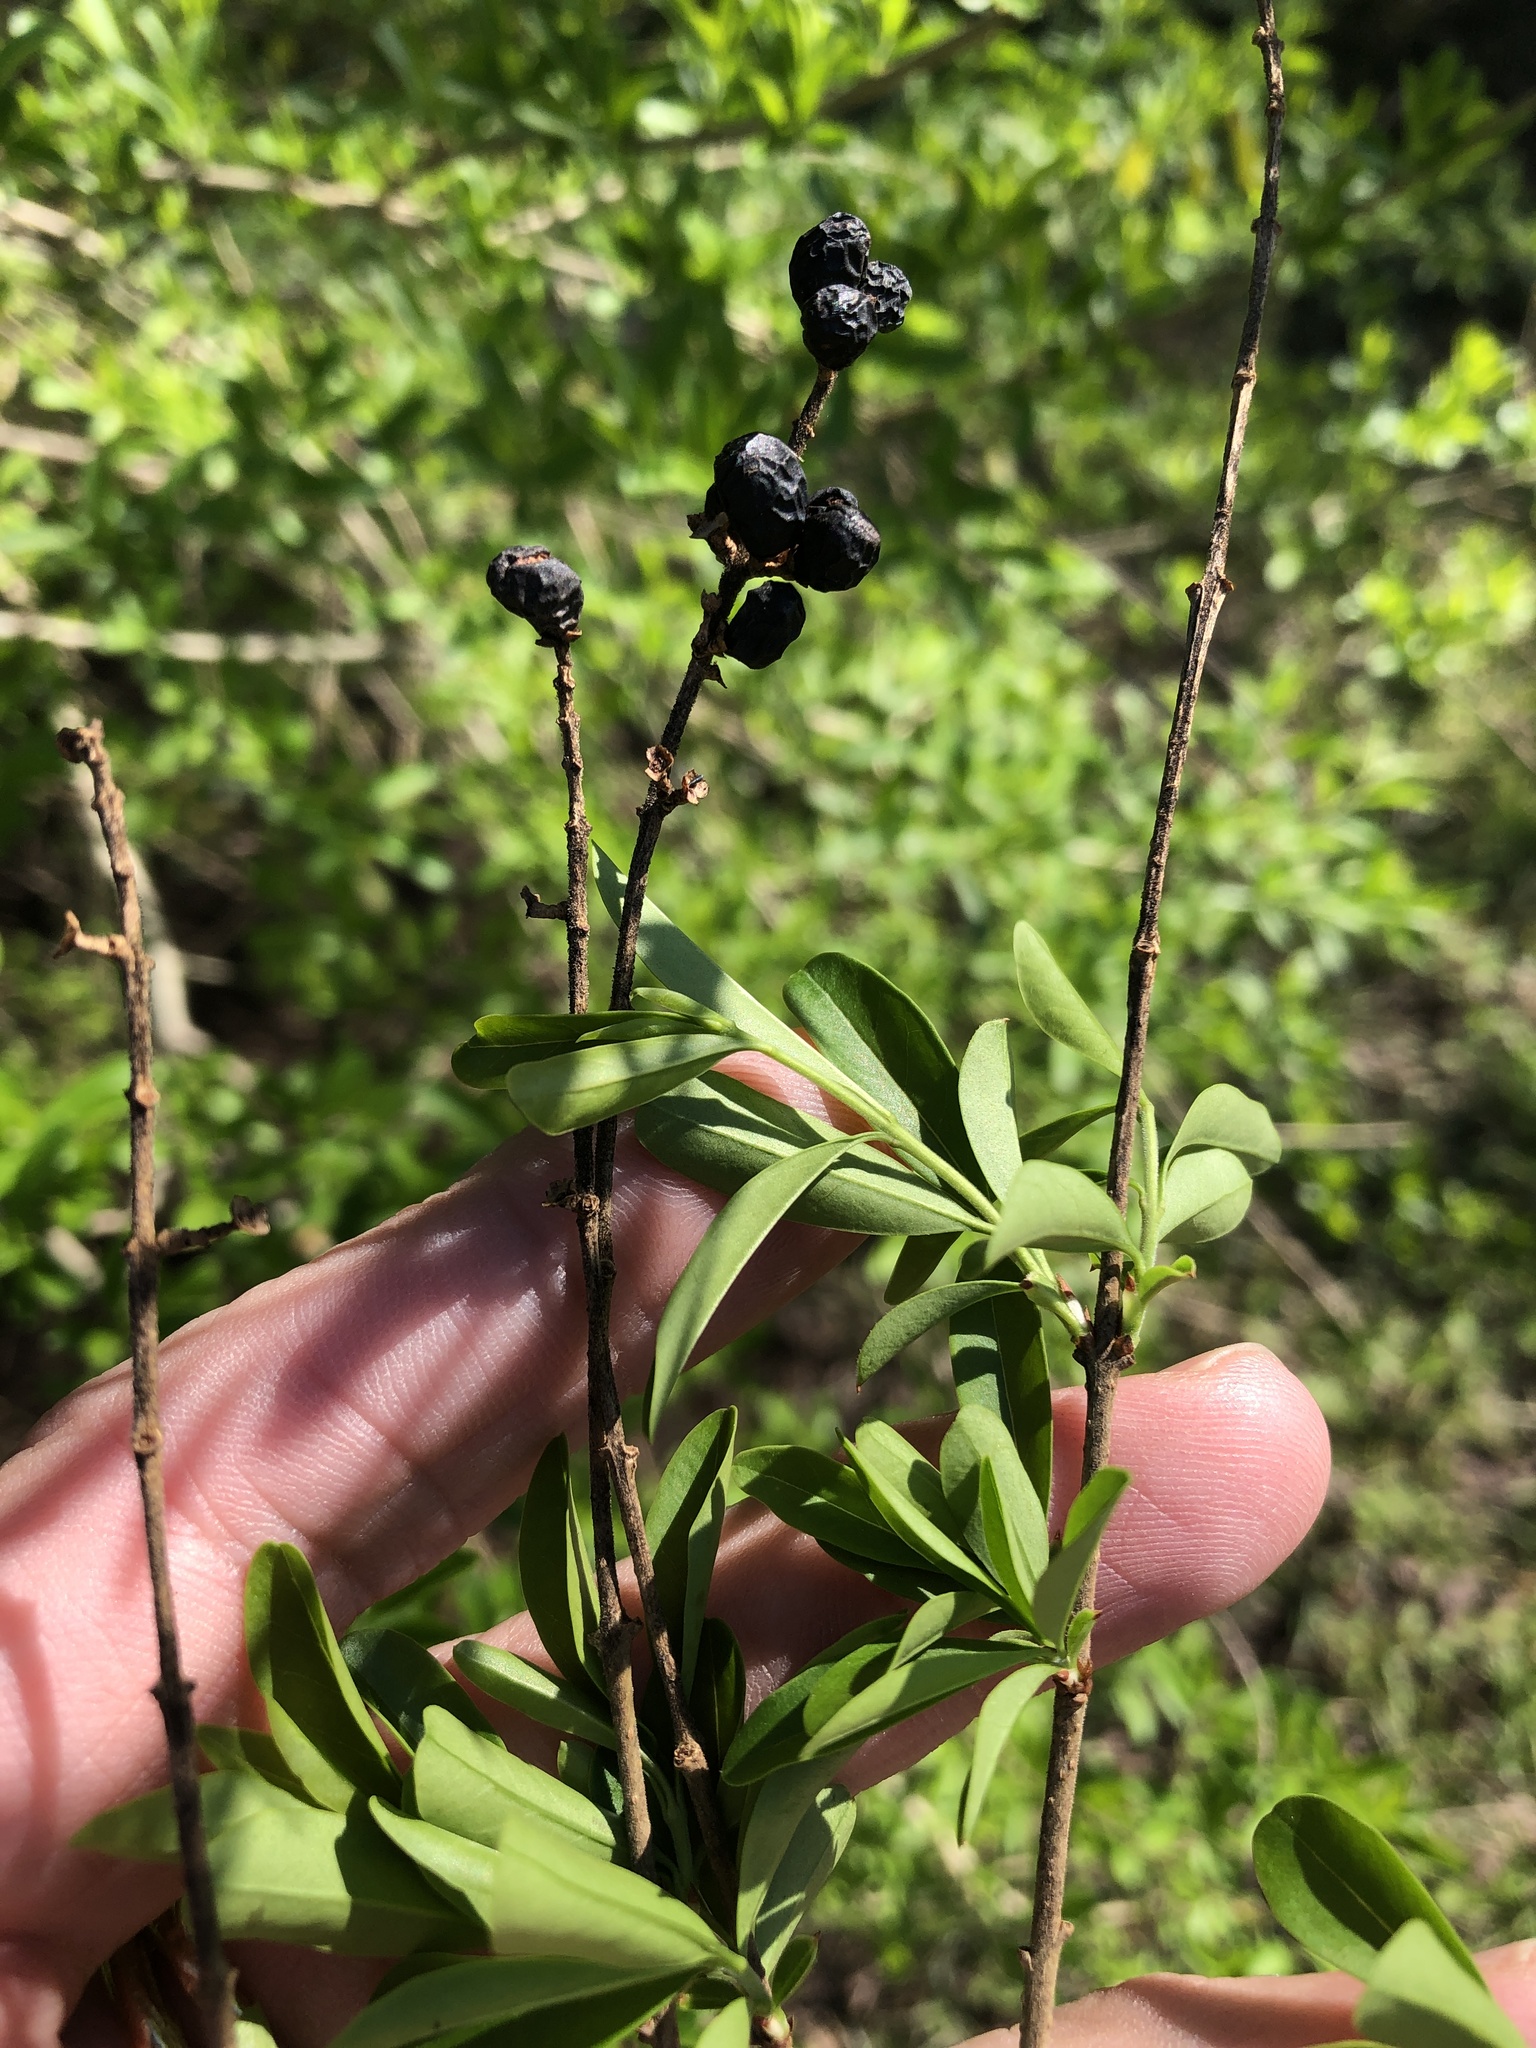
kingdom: Plantae
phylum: Tracheophyta
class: Magnoliopsida
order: Lamiales
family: Oleaceae
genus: Ligustrum
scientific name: Ligustrum quihoui
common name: Waxyleaf privet
